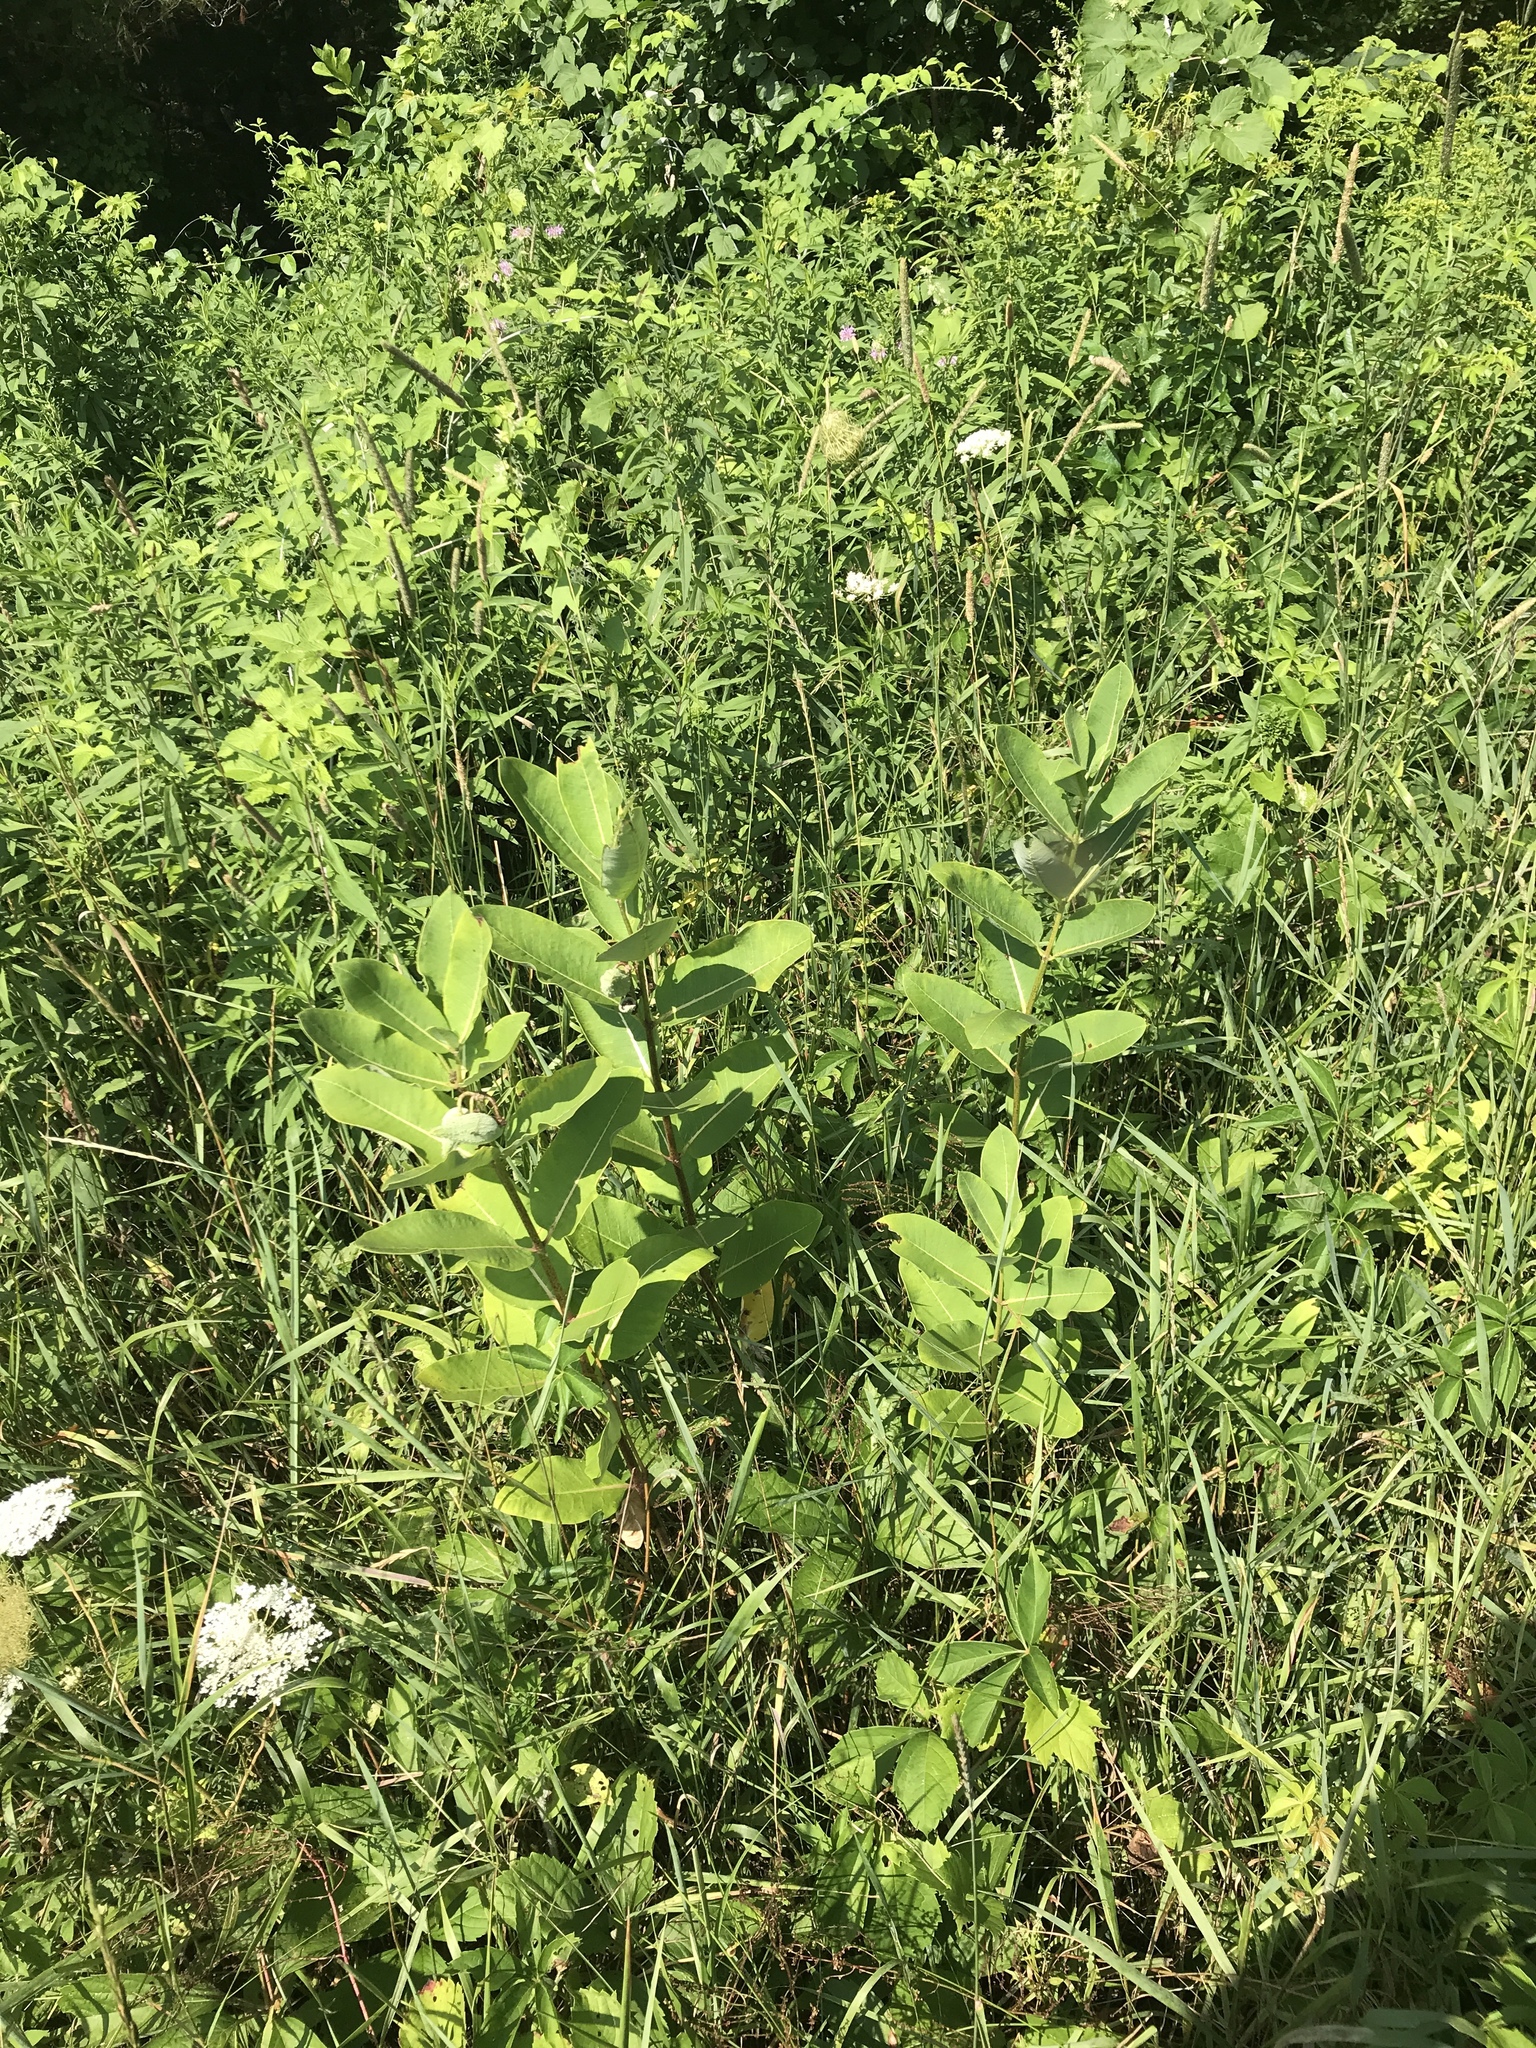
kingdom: Plantae
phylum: Tracheophyta
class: Magnoliopsida
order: Gentianales
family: Apocynaceae
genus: Asclepias
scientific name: Asclepias syriaca
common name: Common milkweed
